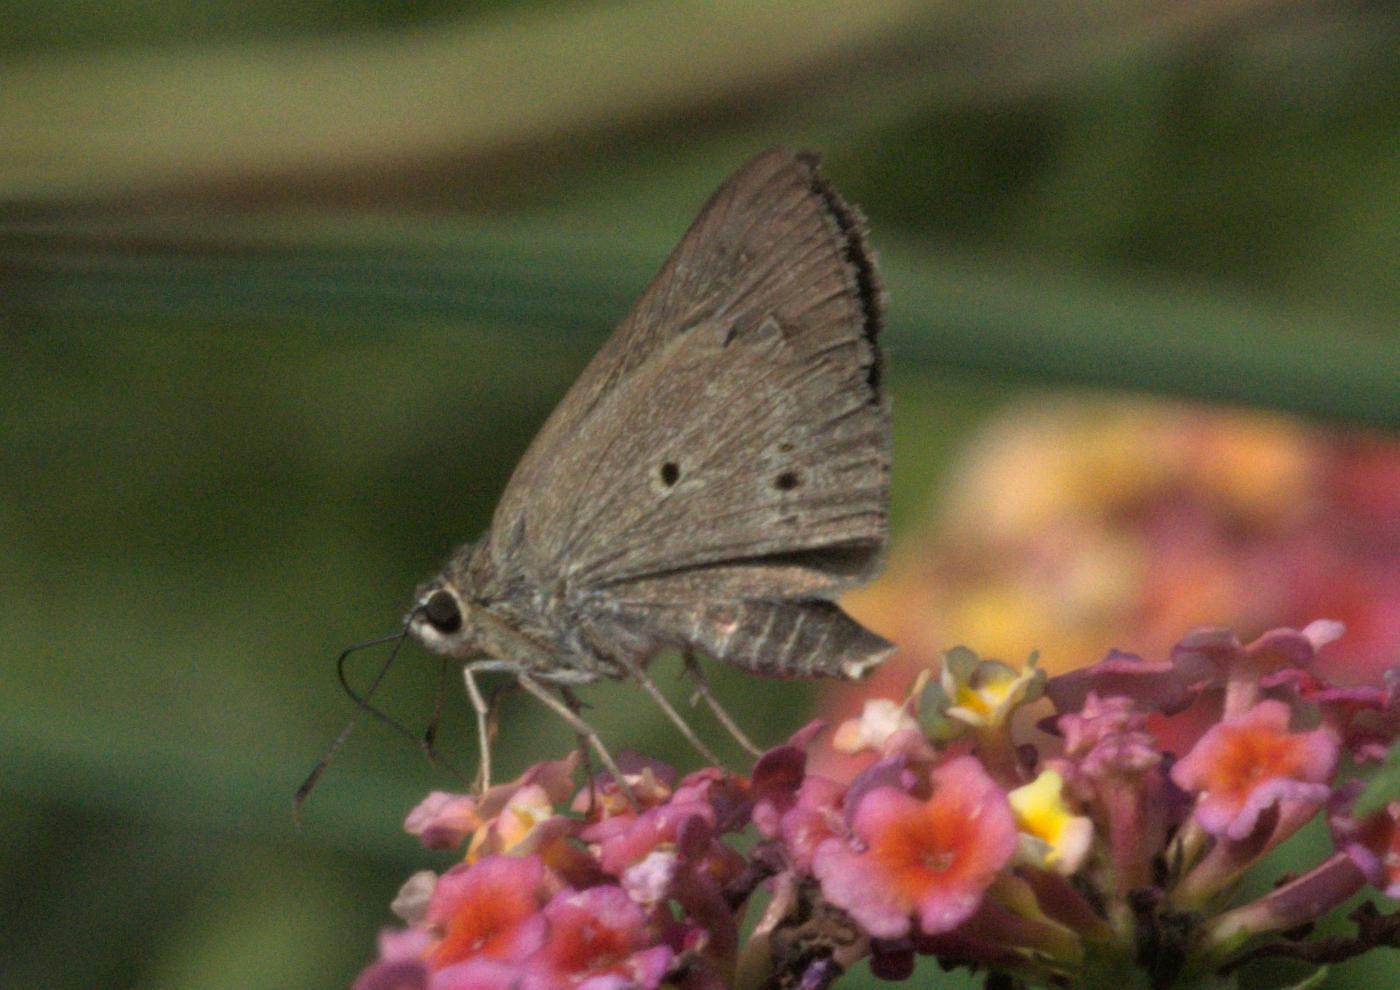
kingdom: Animalia
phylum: Arthropoda
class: Insecta
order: Lepidoptera
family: Hesperiidae
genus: Suastus
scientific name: Suastus gremius
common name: Indian palm bob
